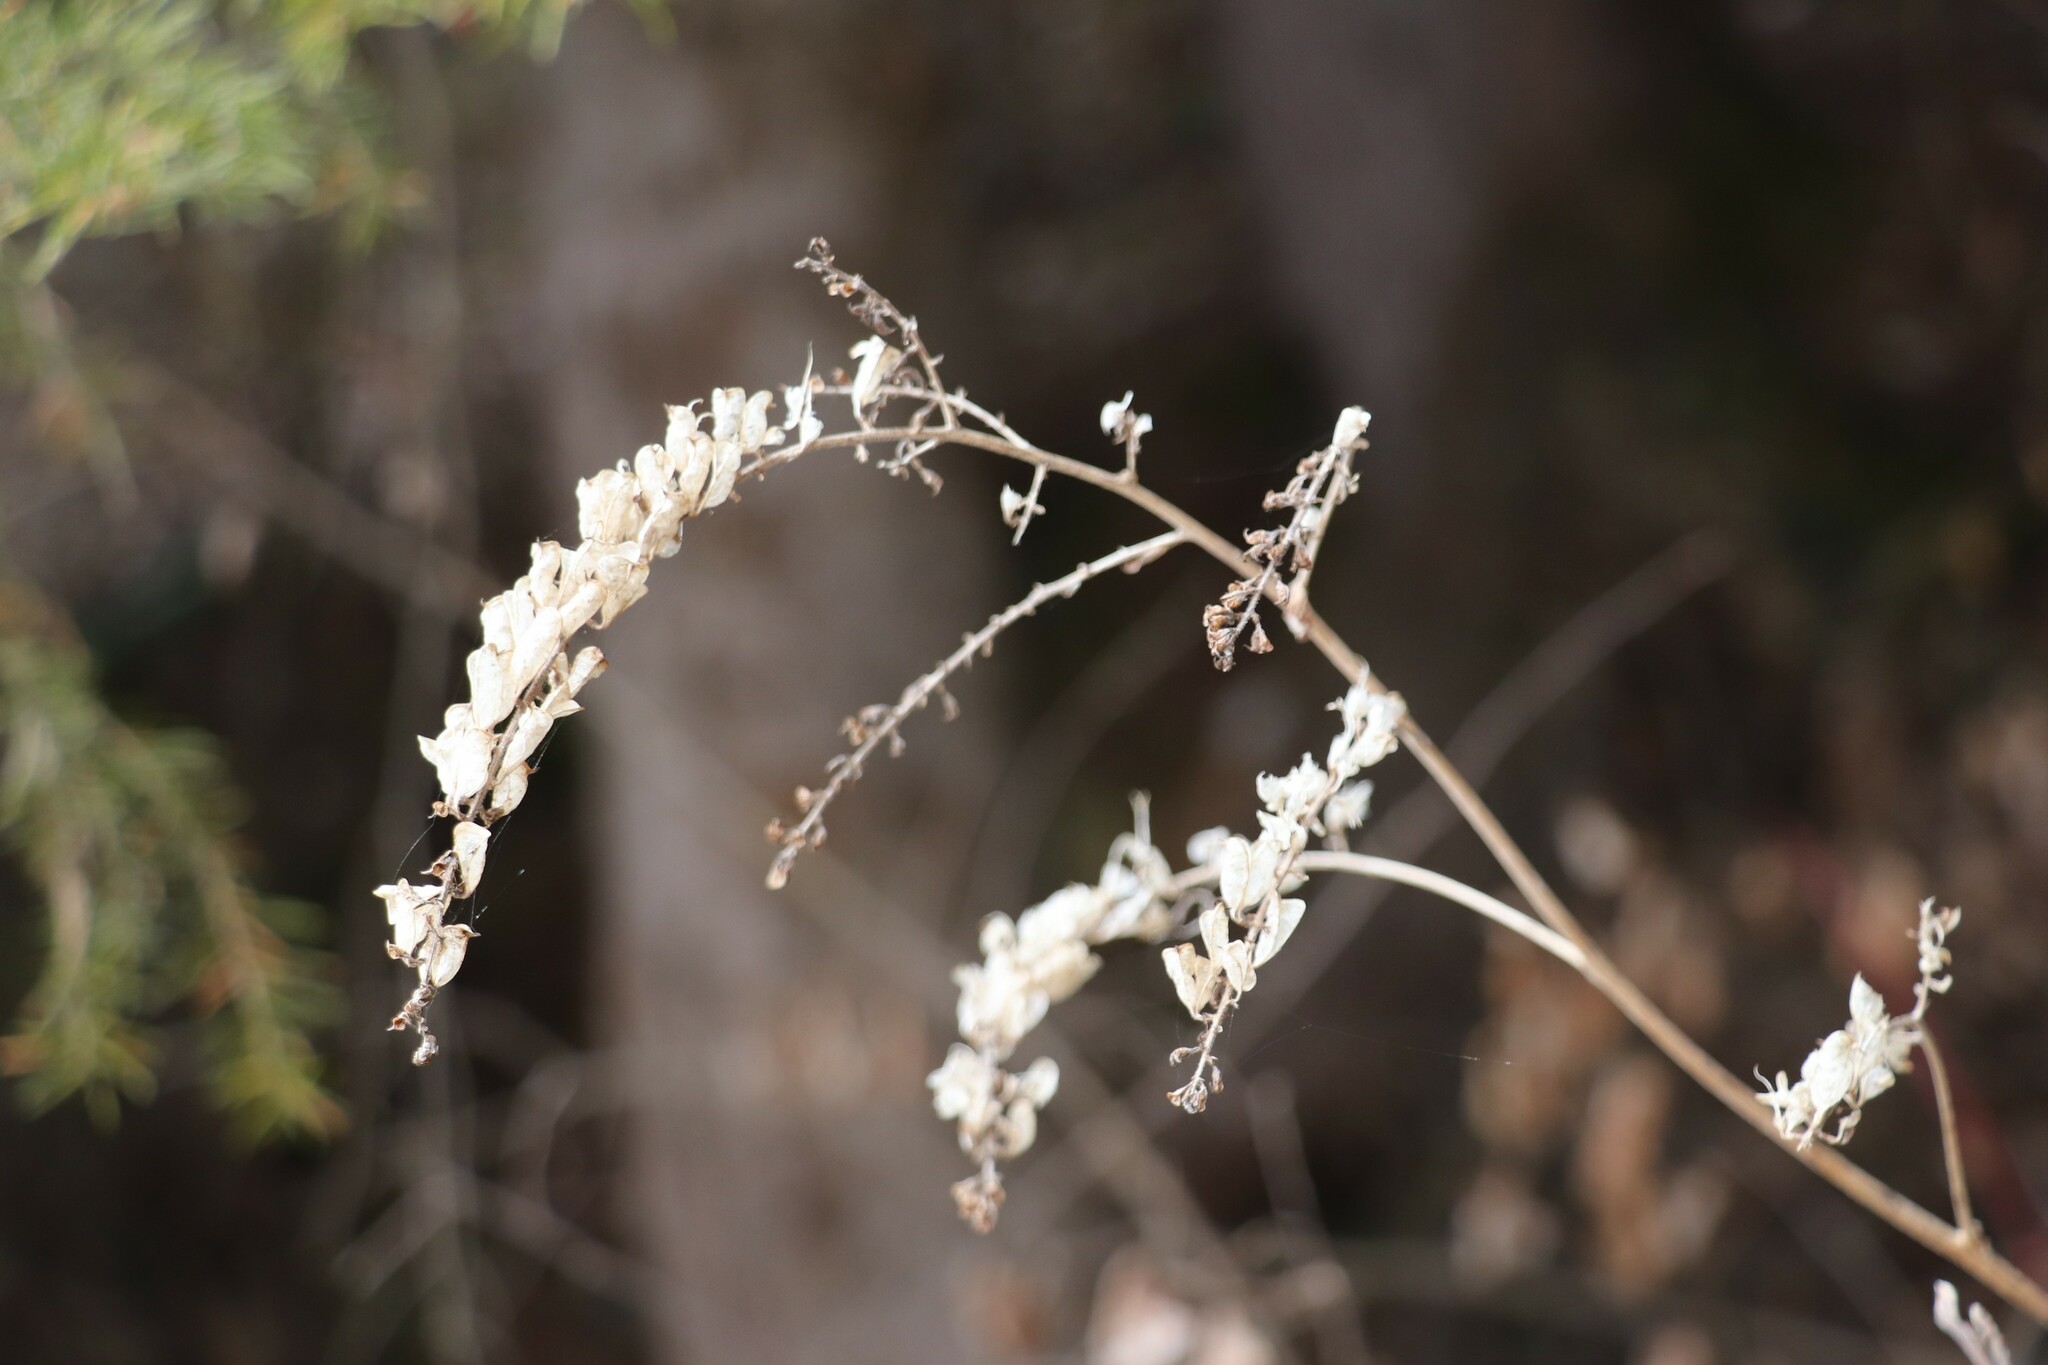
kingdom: Plantae
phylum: Tracheophyta
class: Magnoliopsida
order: Ranunculales
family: Ranunculaceae
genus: Actaea
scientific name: Actaea cimicifuga
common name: Chinese cimicifuga
